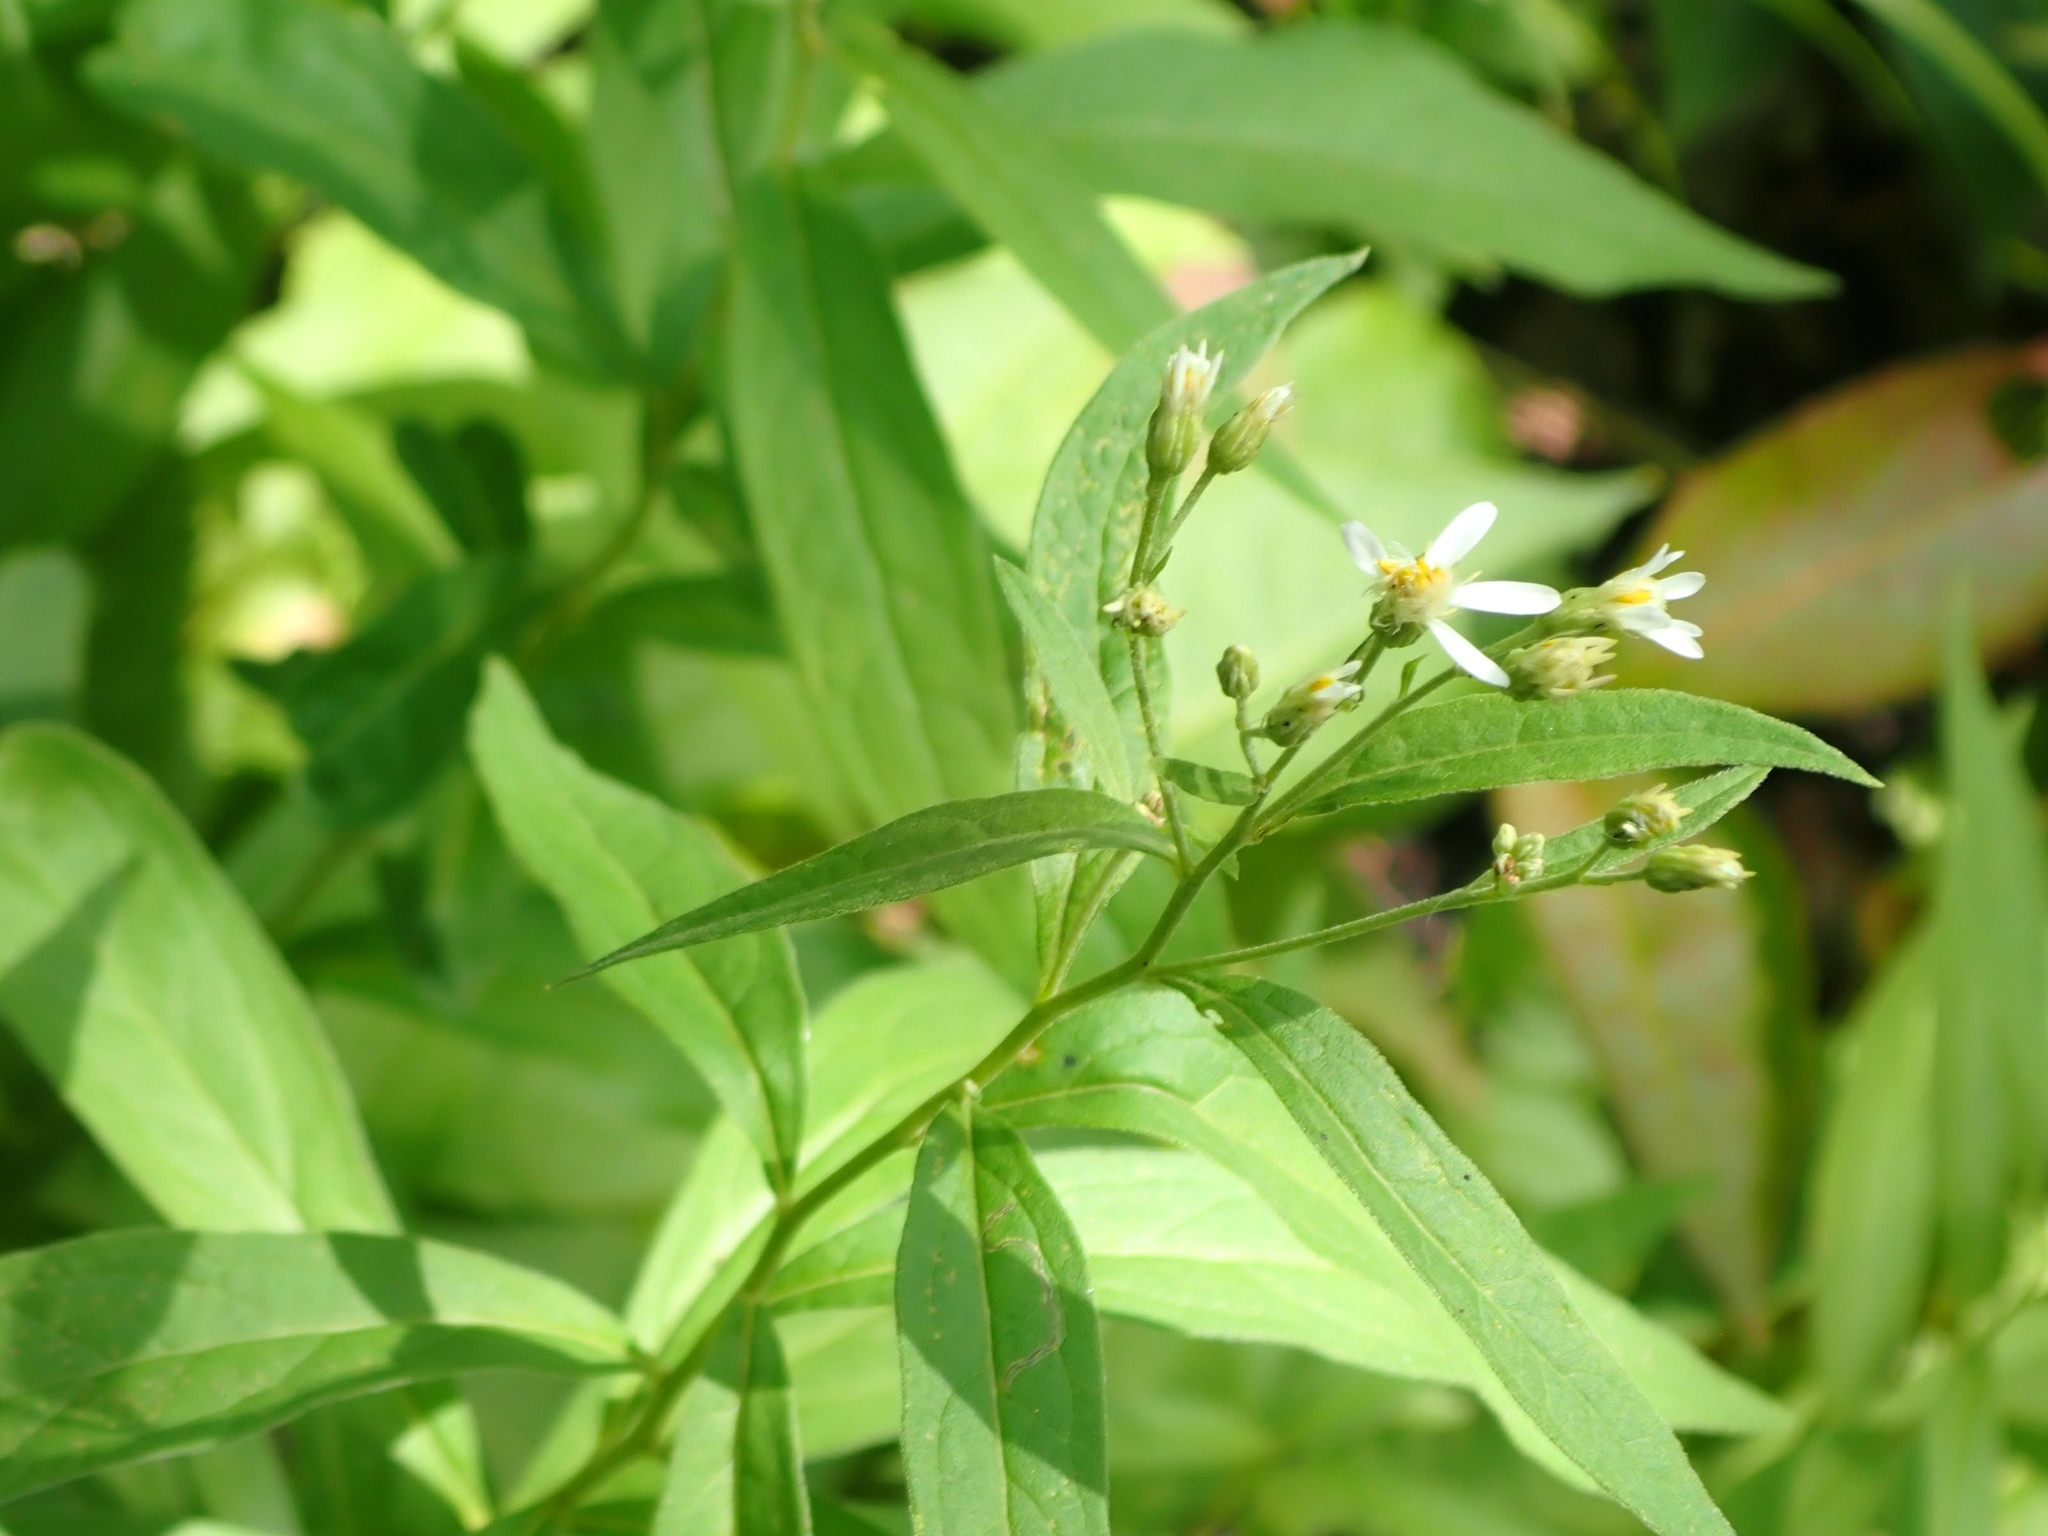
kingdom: Plantae
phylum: Tracheophyta
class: Magnoliopsida
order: Asterales
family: Asteraceae
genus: Doellingeria
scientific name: Doellingeria umbellata
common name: Flat-top white aster
